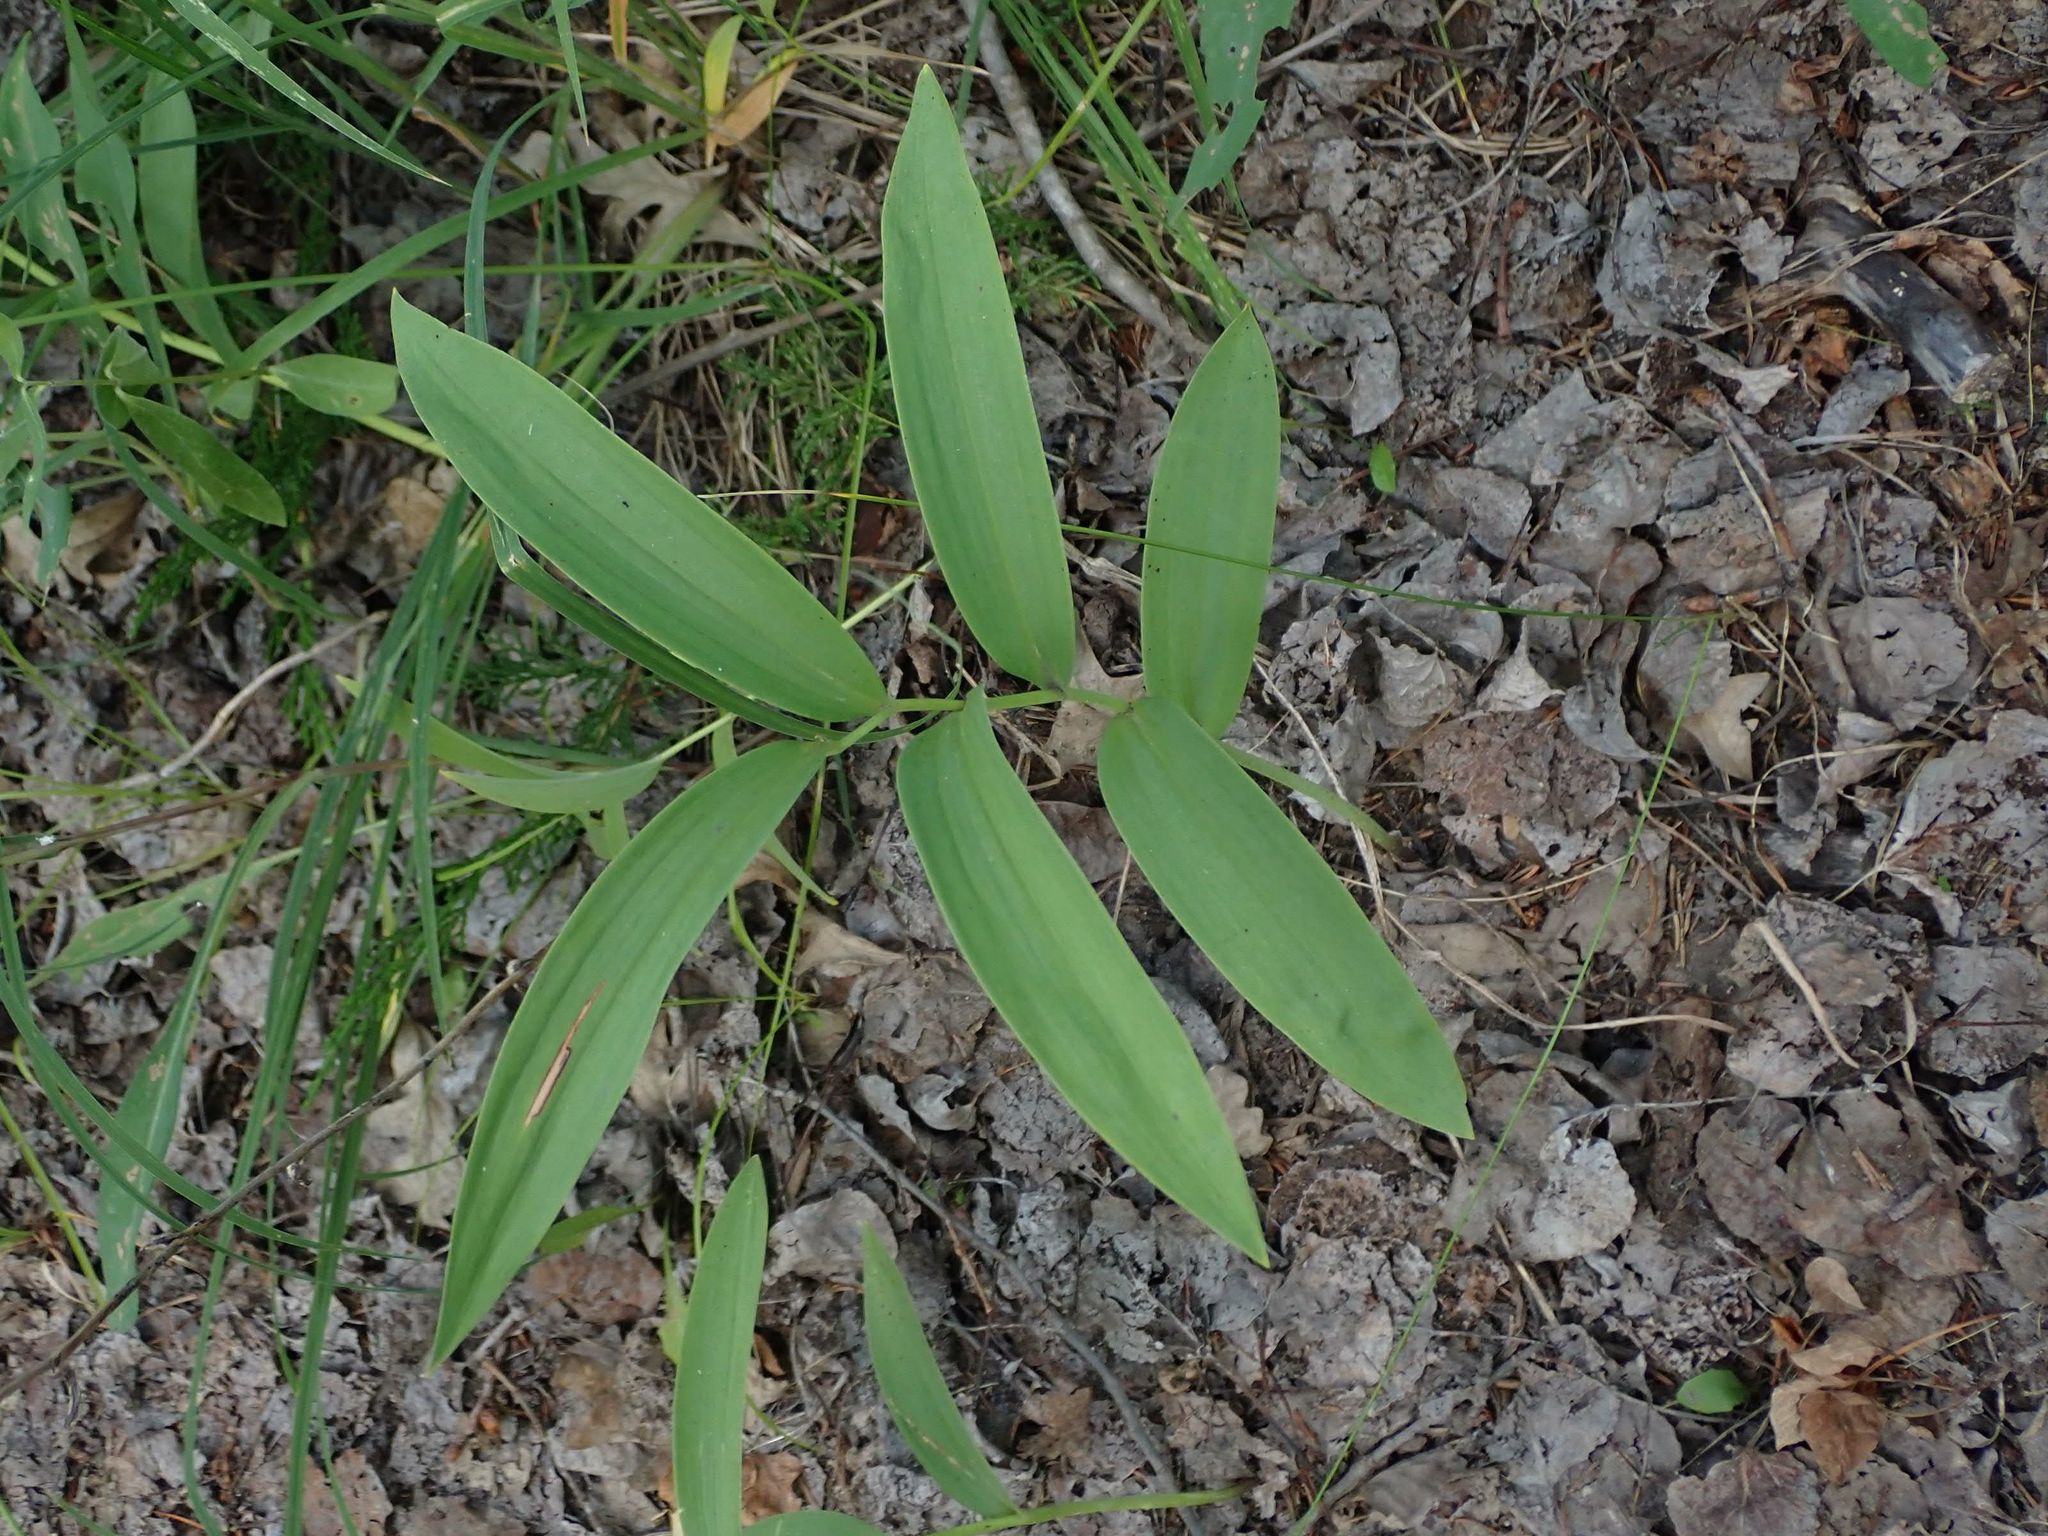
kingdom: Plantae
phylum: Tracheophyta
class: Liliopsida
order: Asparagales
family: Asparagaceae
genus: Maianthemum
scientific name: Maianthemum stellatum
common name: Little false solomon's seal
